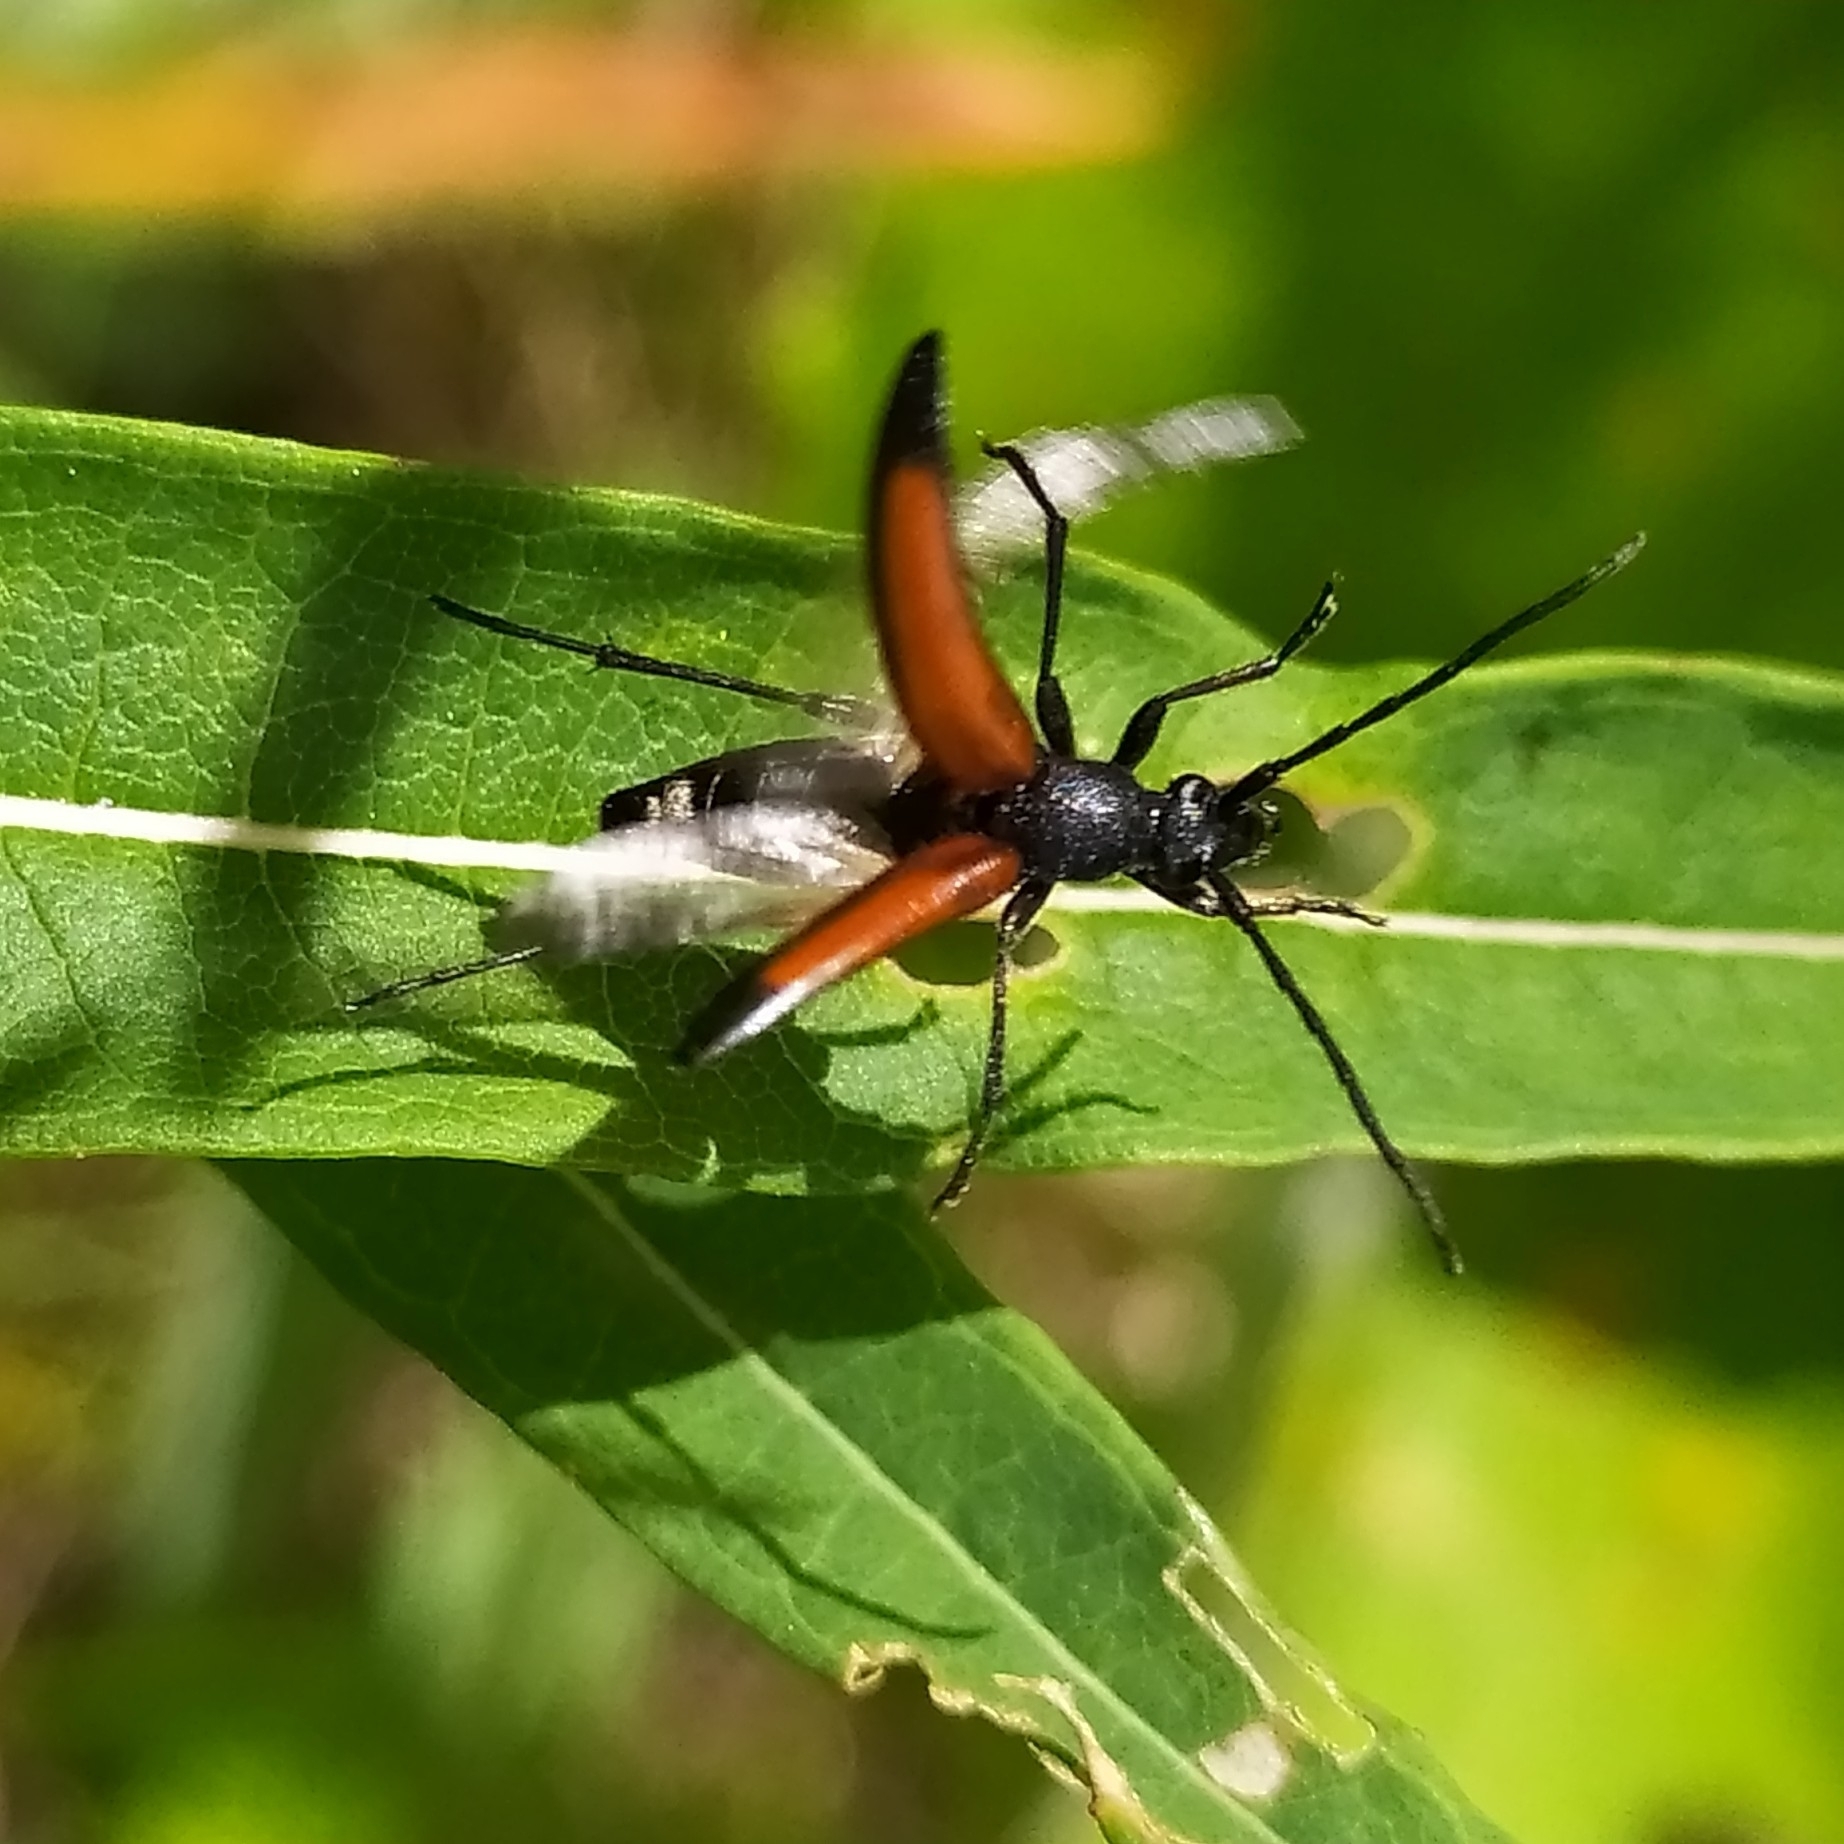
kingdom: Animalia
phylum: Arthropoda
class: Insecta
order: Coleoptera
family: Cerambycidae
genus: Stenurella
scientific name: Stenurella melanura
